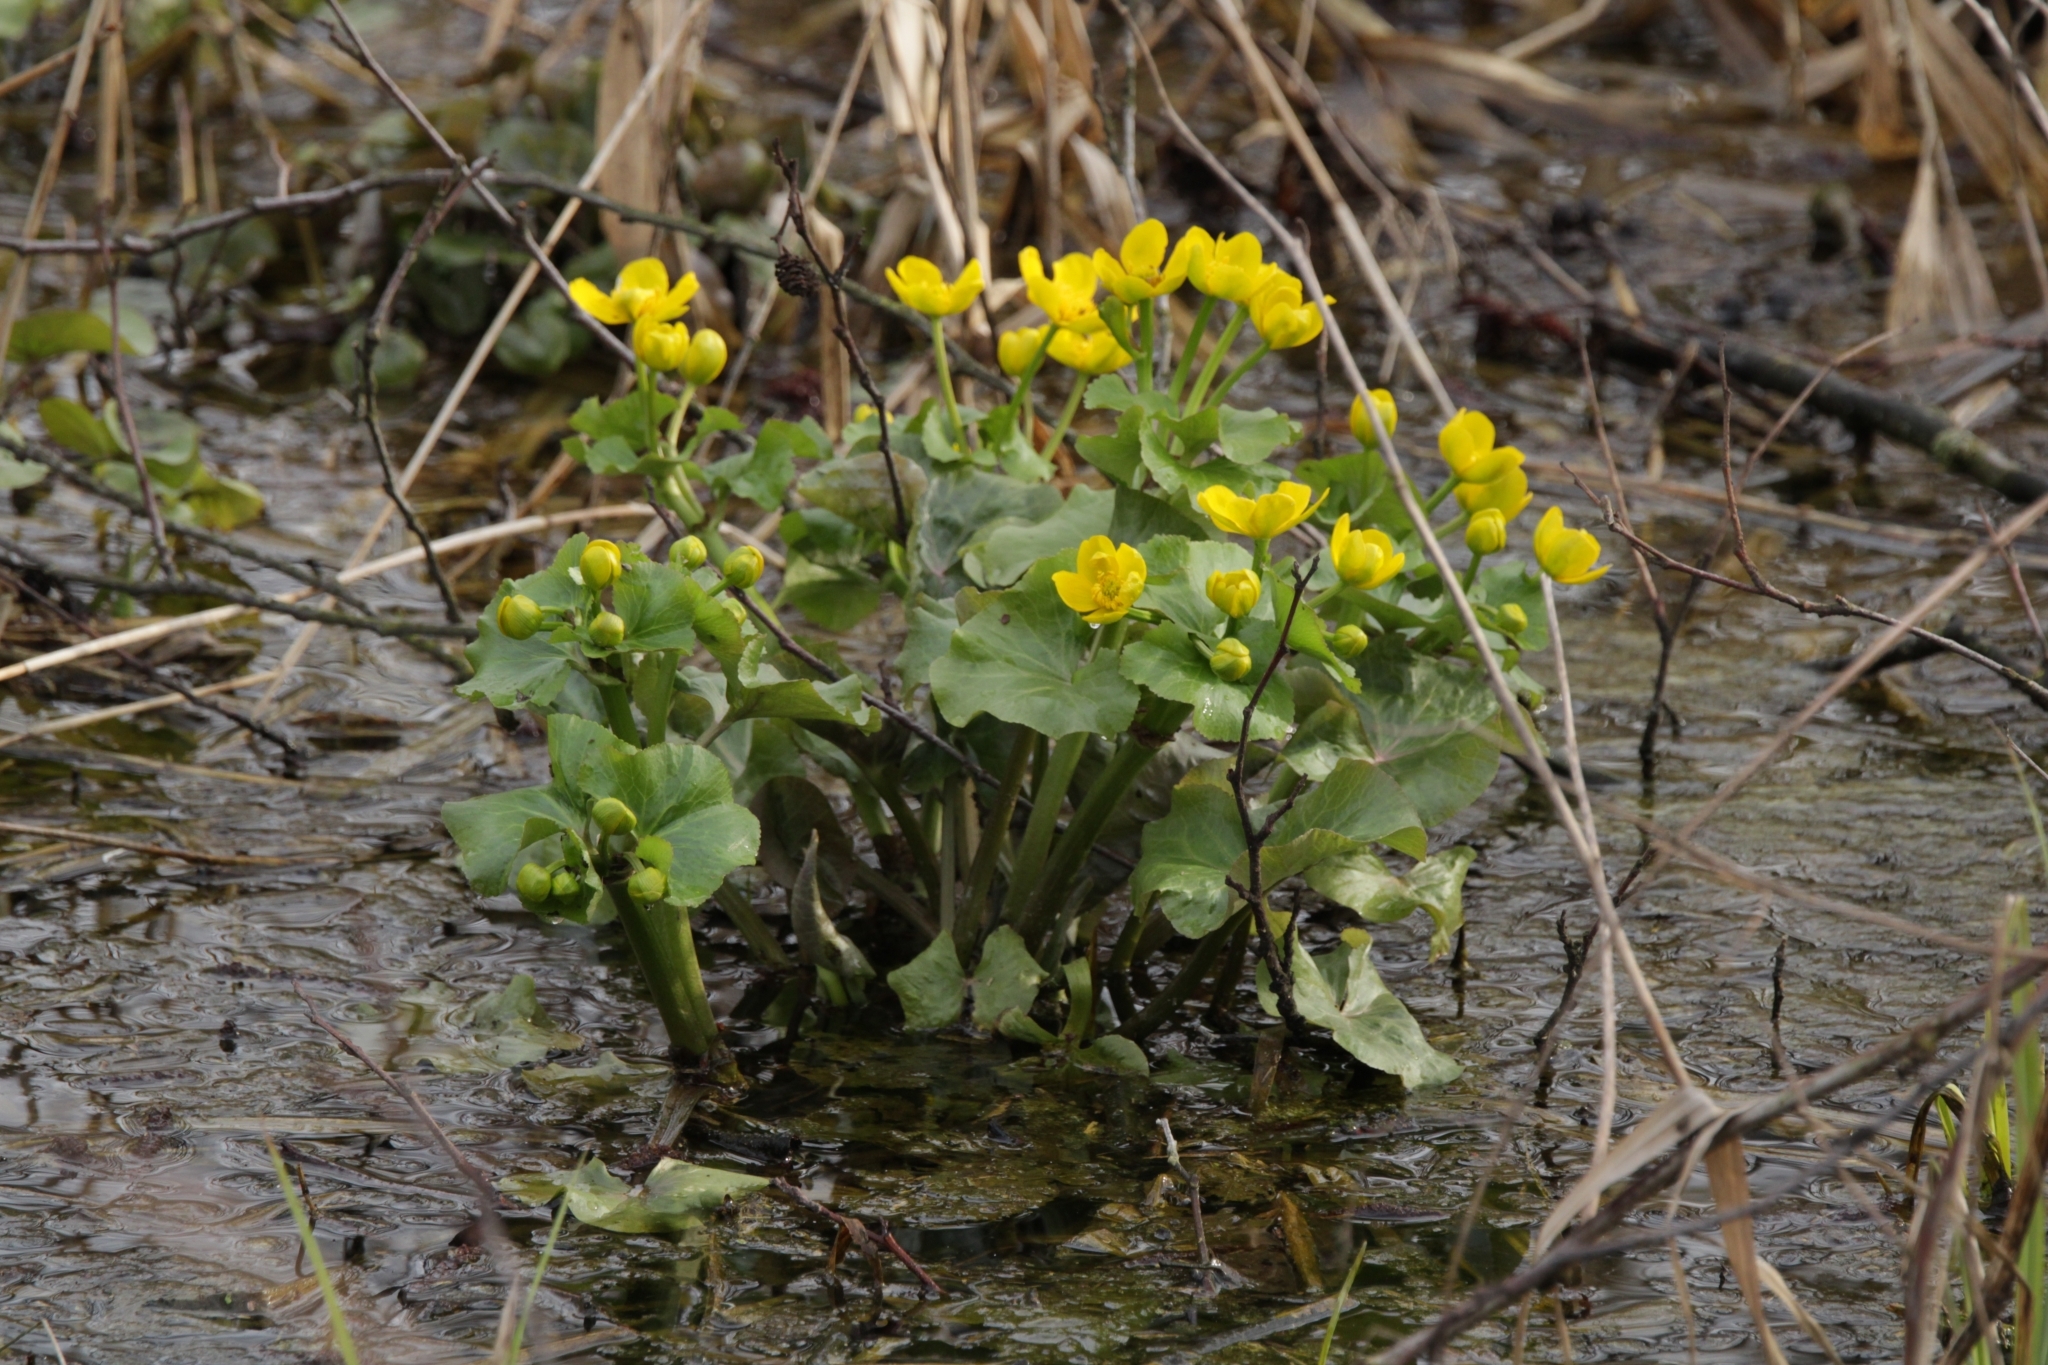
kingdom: Plantae
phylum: Tracheophyta
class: Magnoliopsida
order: Ranunculales
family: Ranunculaceae
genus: Caltha
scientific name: Caltha palustris
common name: Marsh marigold
